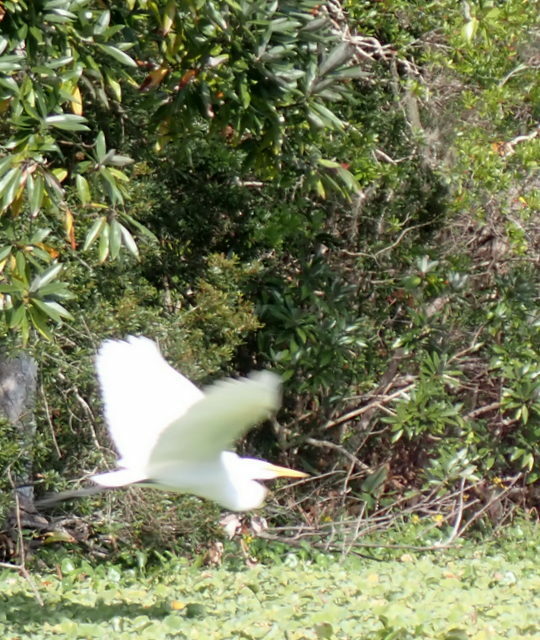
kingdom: Animalia
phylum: Chordata
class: Aves
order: Pelecaniformes
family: Ardeidae
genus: Ardea
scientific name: Ardea alba
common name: Great egret
